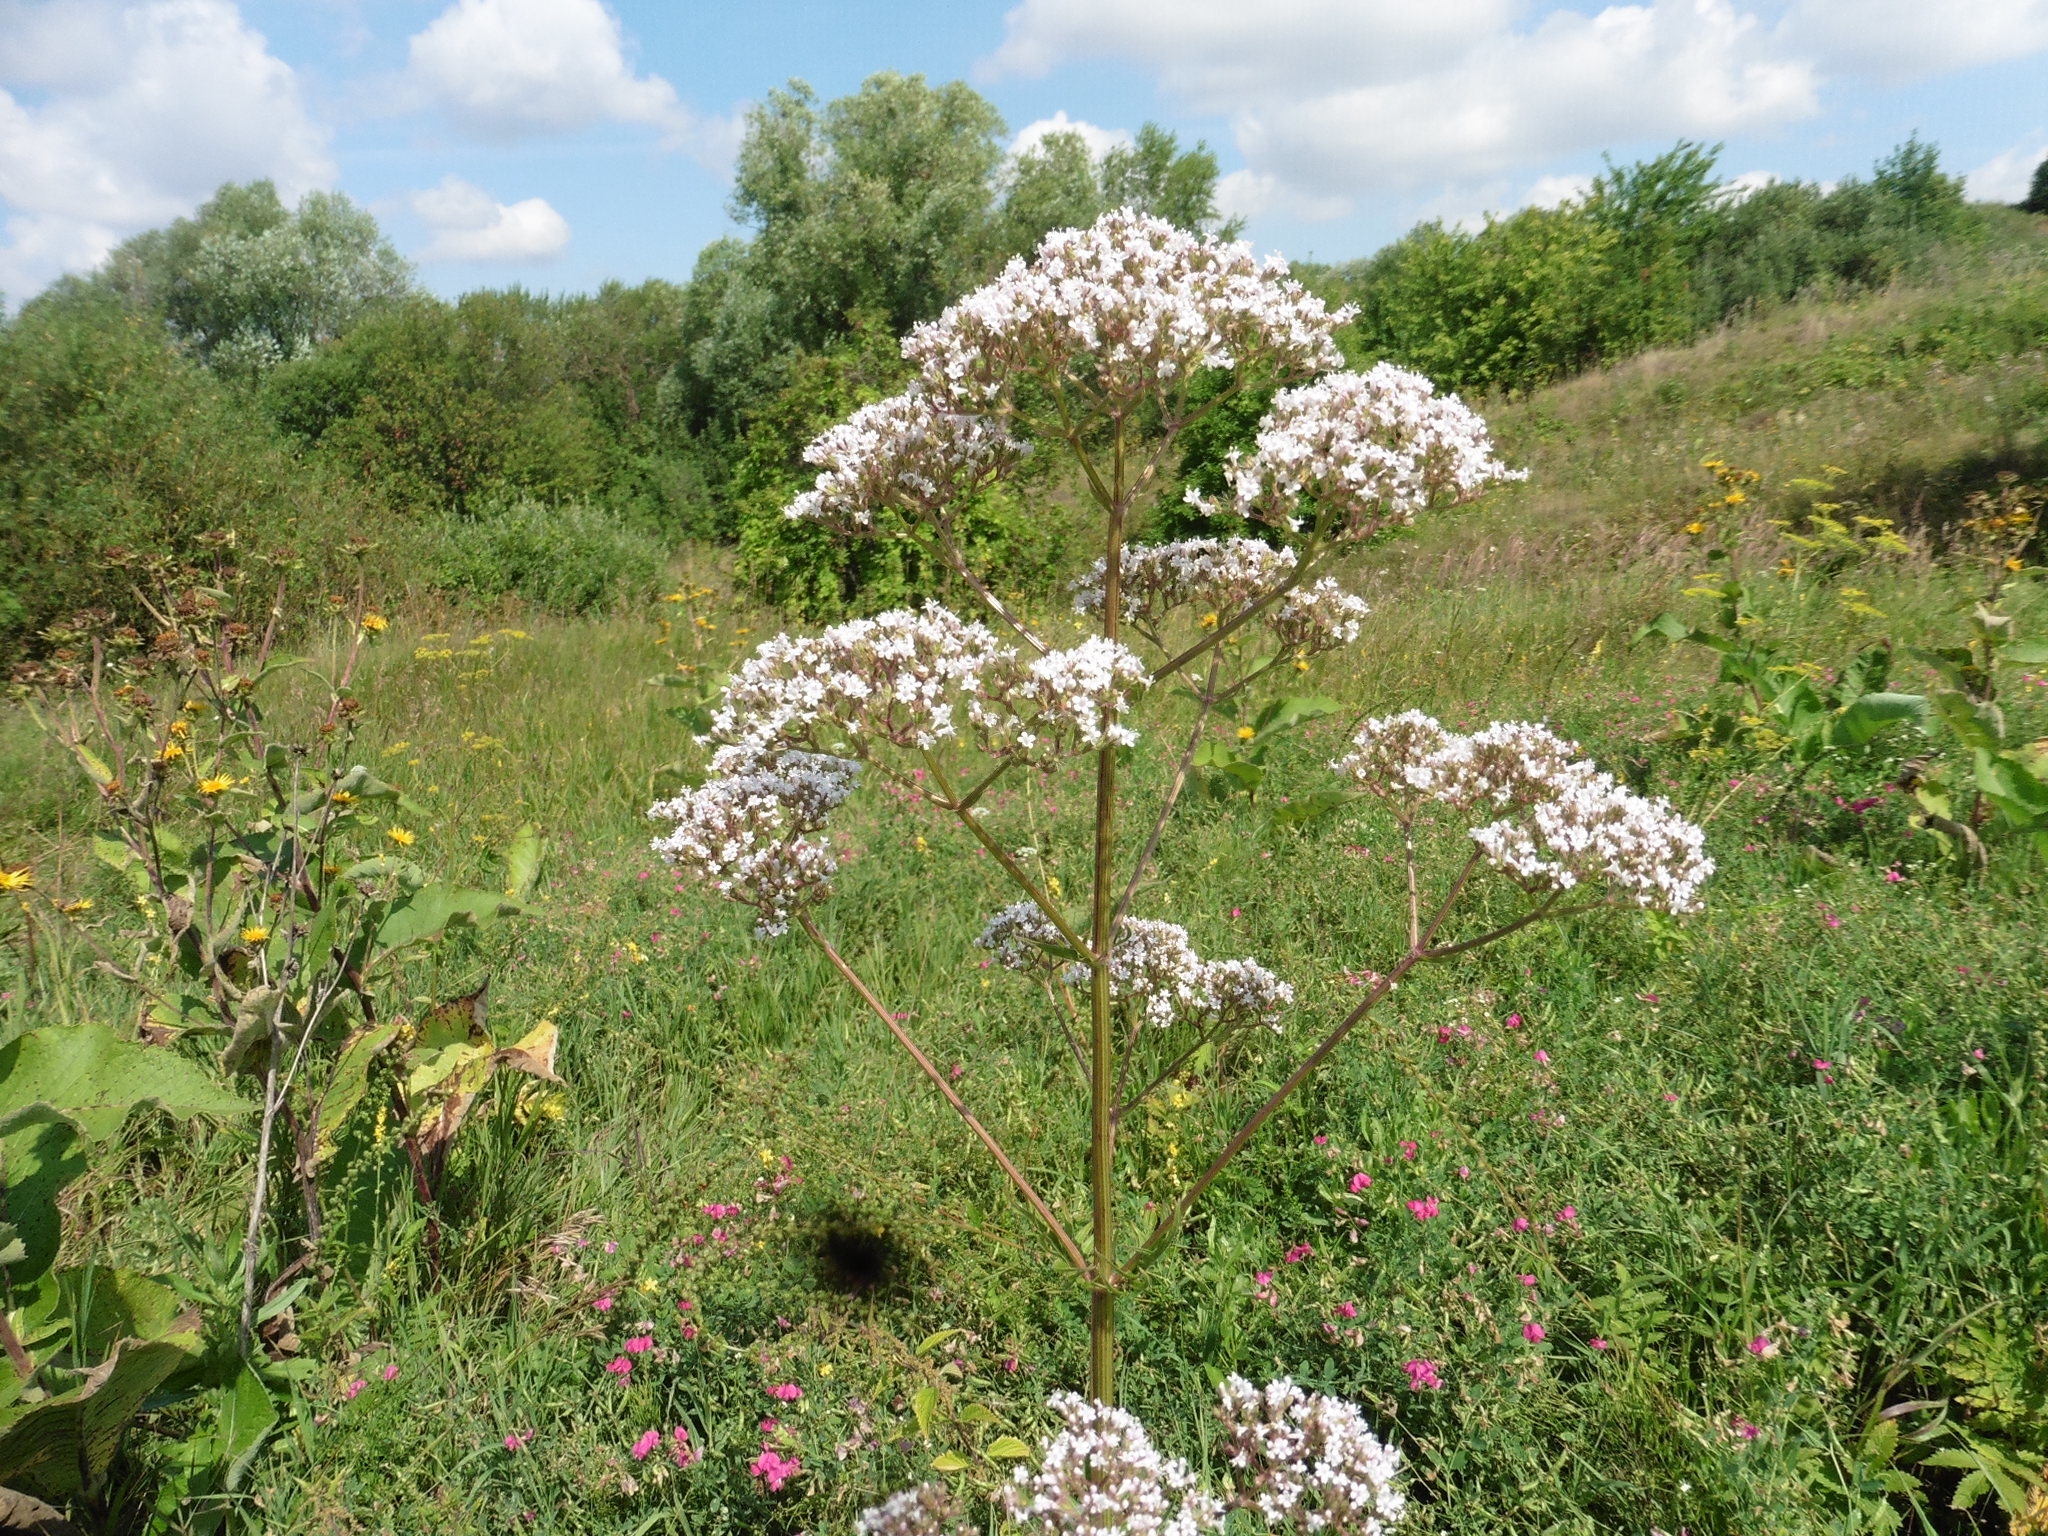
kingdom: Plantae
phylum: Tracheophyta
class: Magnoliopsida
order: Dipsacales
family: Caprifoliaceae
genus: Valeriana
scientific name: Valeriana officinalis
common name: Common valerian
